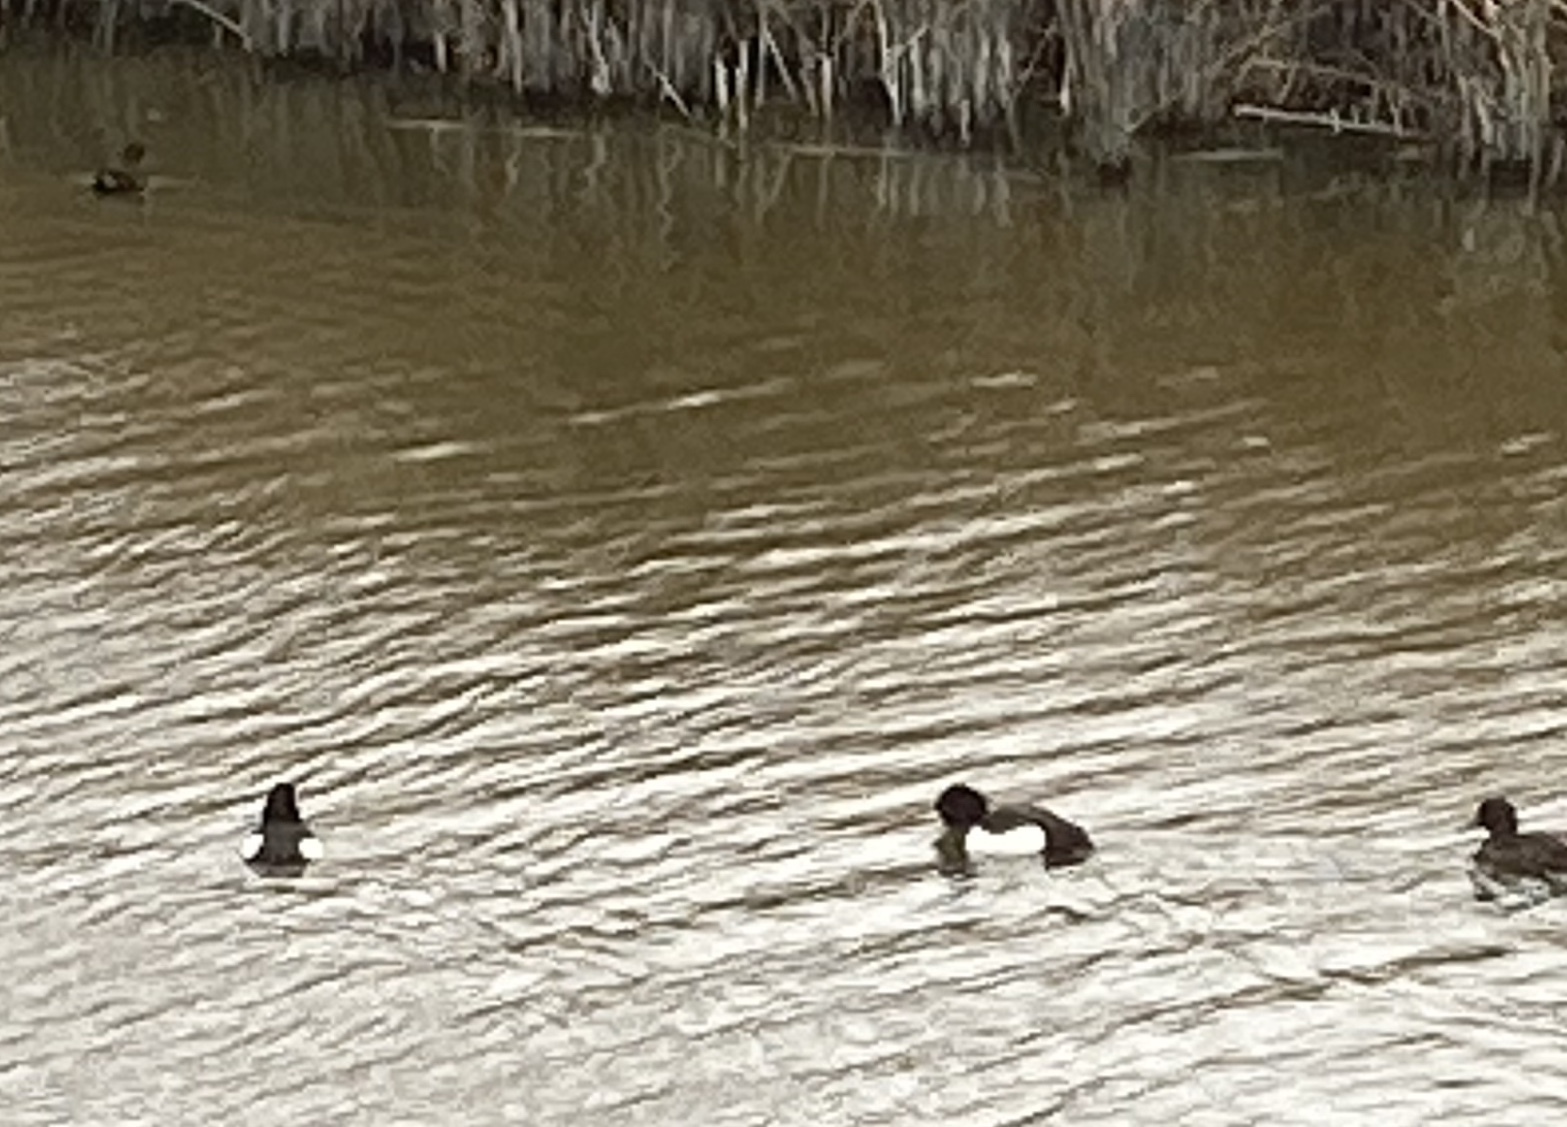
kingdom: Animalia
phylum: Chordata
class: Aves
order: Gruiformes
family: Rallidae
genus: Gallinula
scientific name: Gallinula chloropus
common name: Common moorhen
